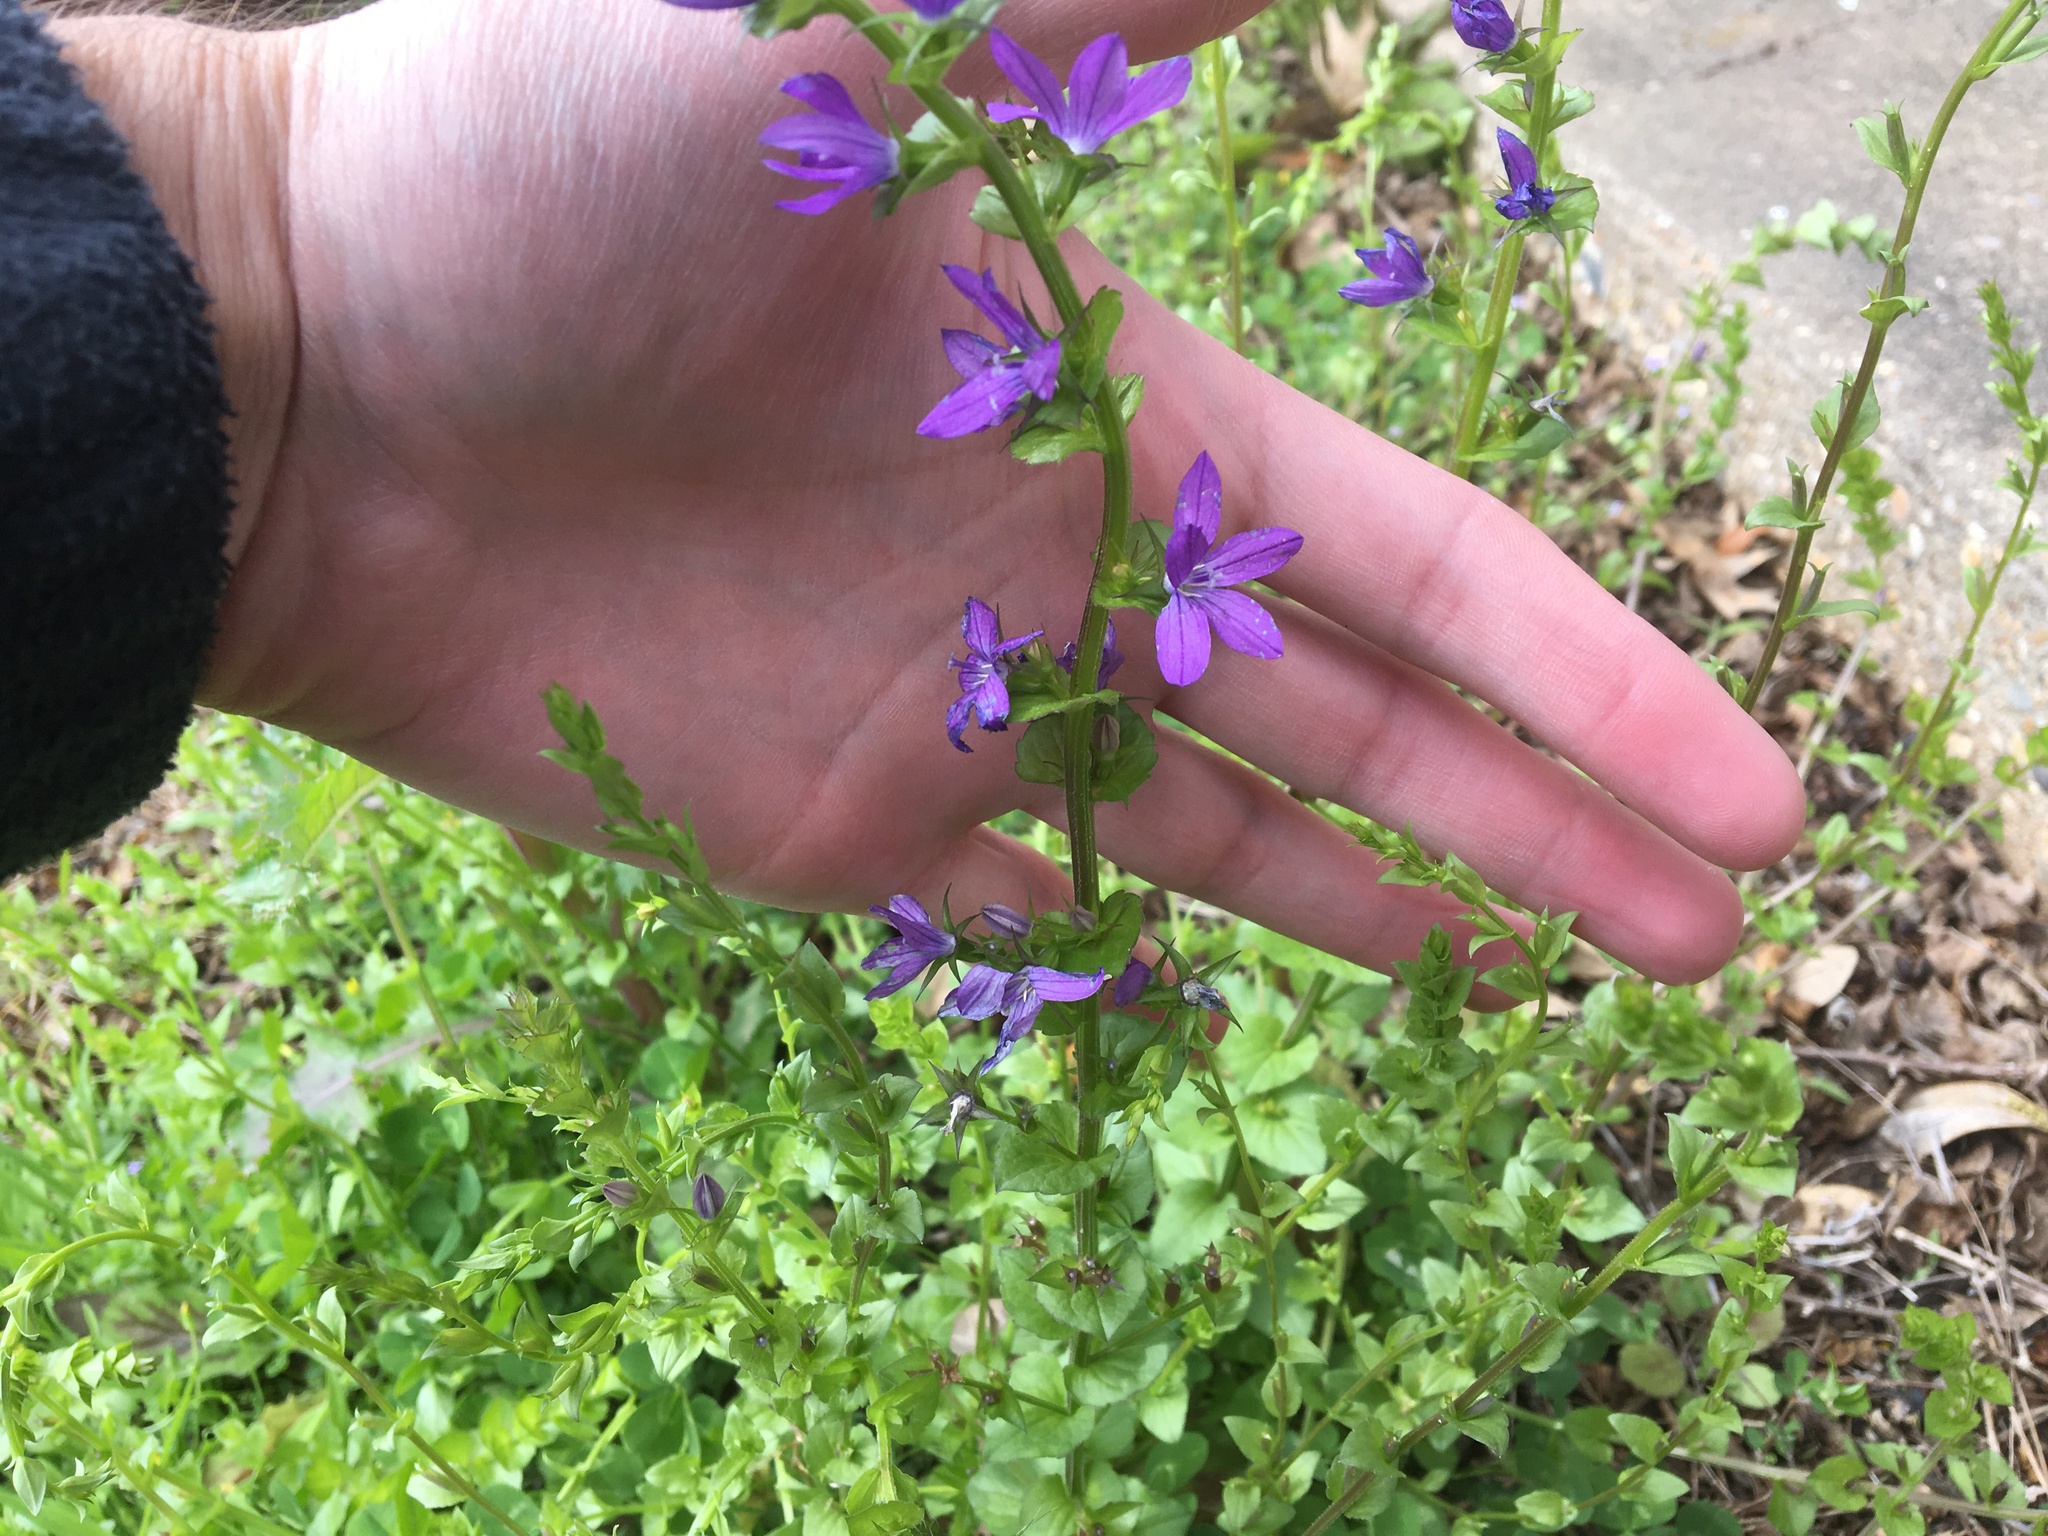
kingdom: Plantae
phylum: Tracheophyta
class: Magnoliopsida
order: Asterales
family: Campanulaceae
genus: Triodanis
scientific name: Triodanis perfoliata
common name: Clasping venus' looking-glass
